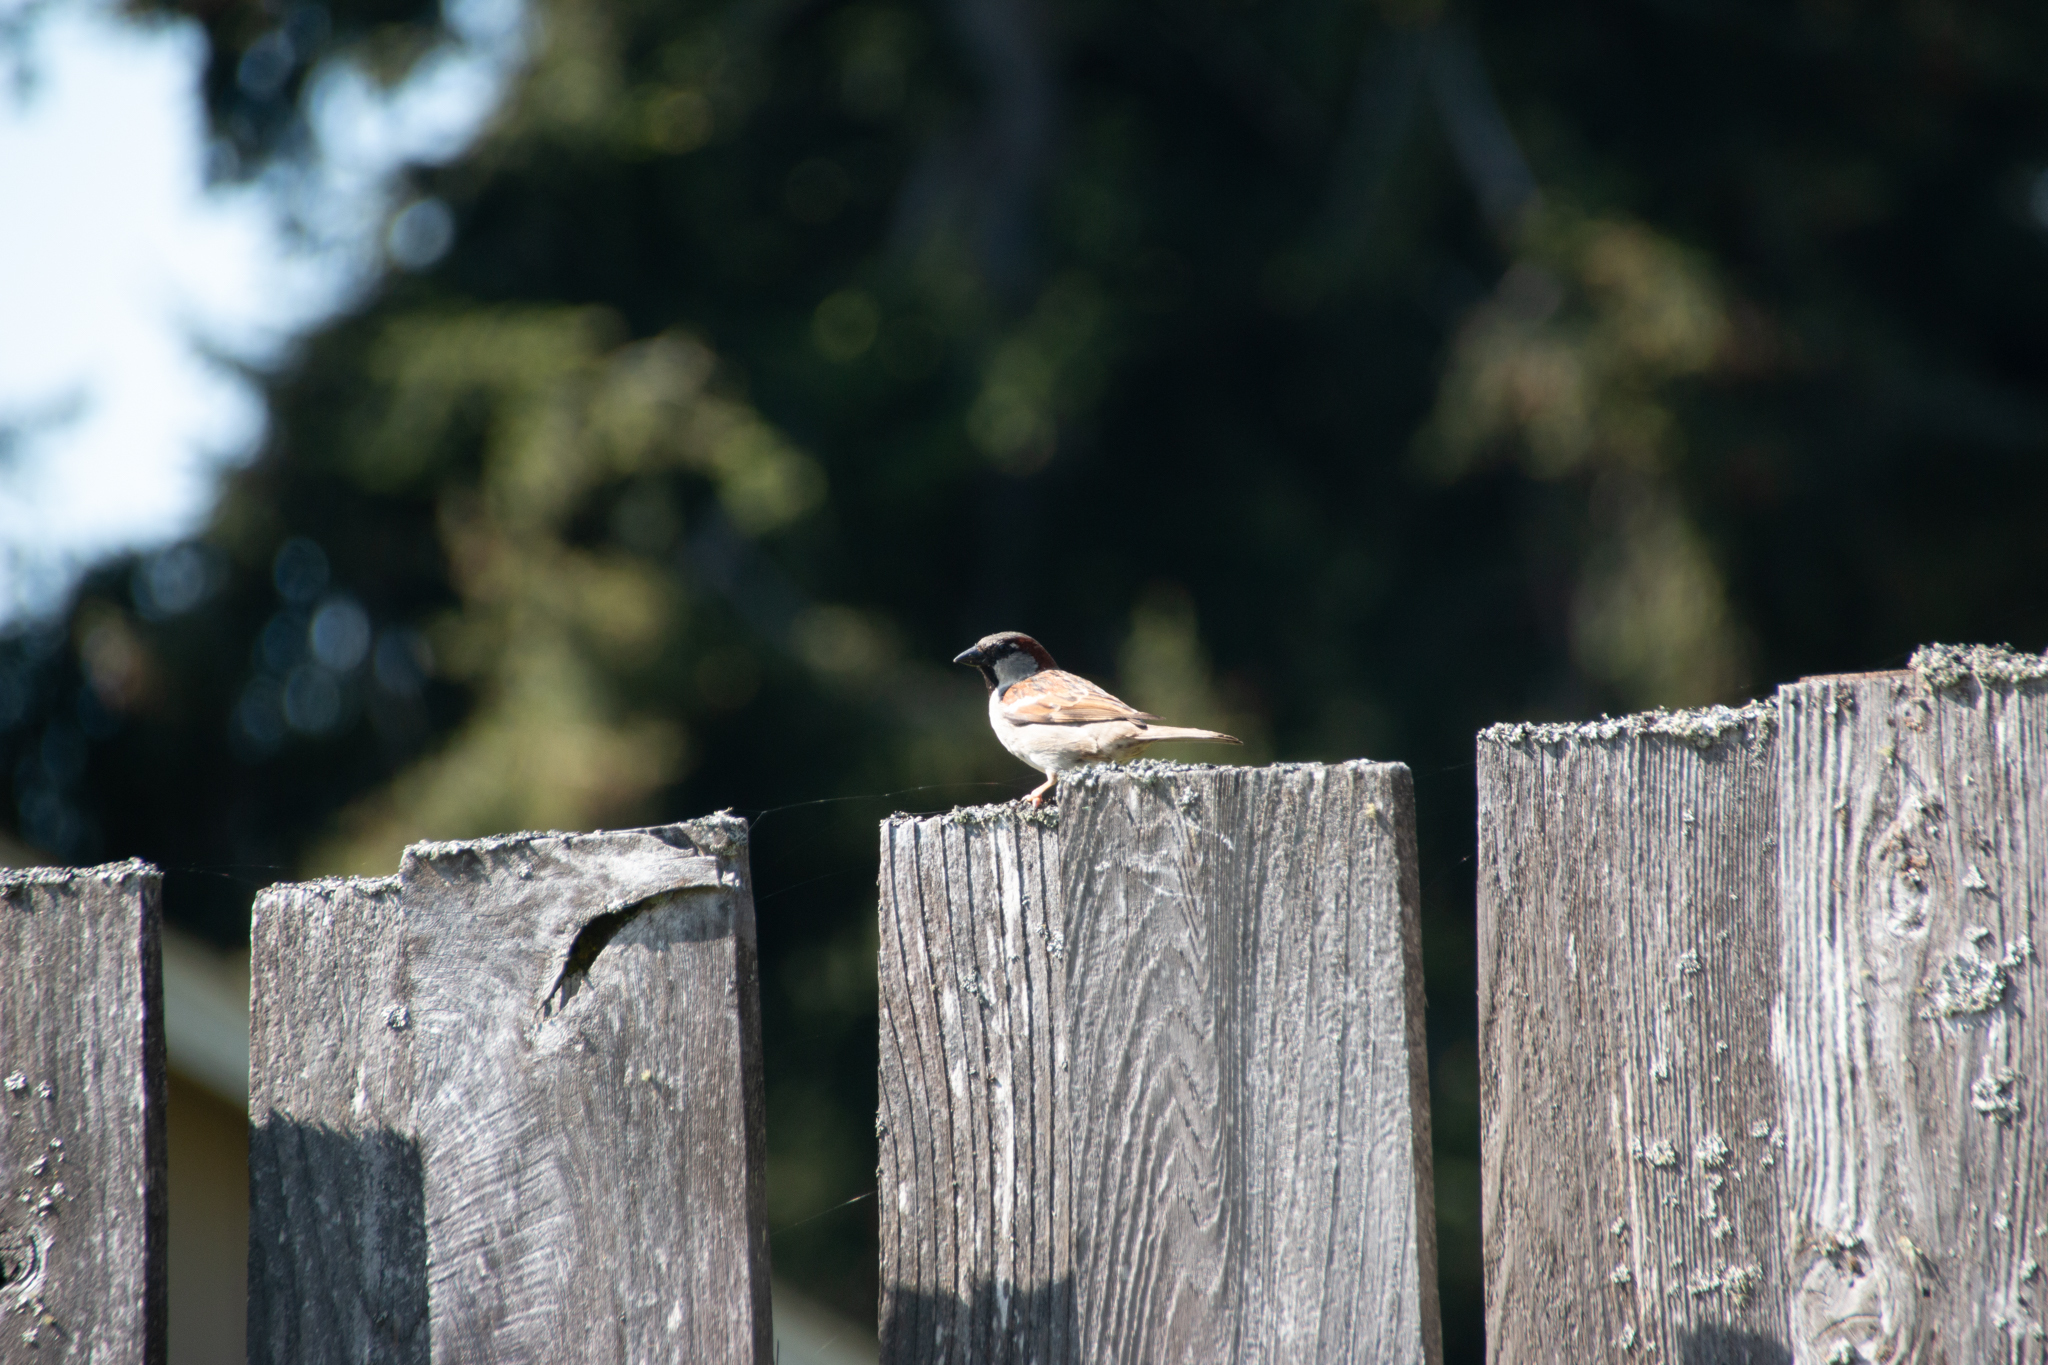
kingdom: Animalia
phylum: Chordata
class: Aves
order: Passeriformes
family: Passeridae
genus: Passer
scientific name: Passer domesticus
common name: House sparrow
